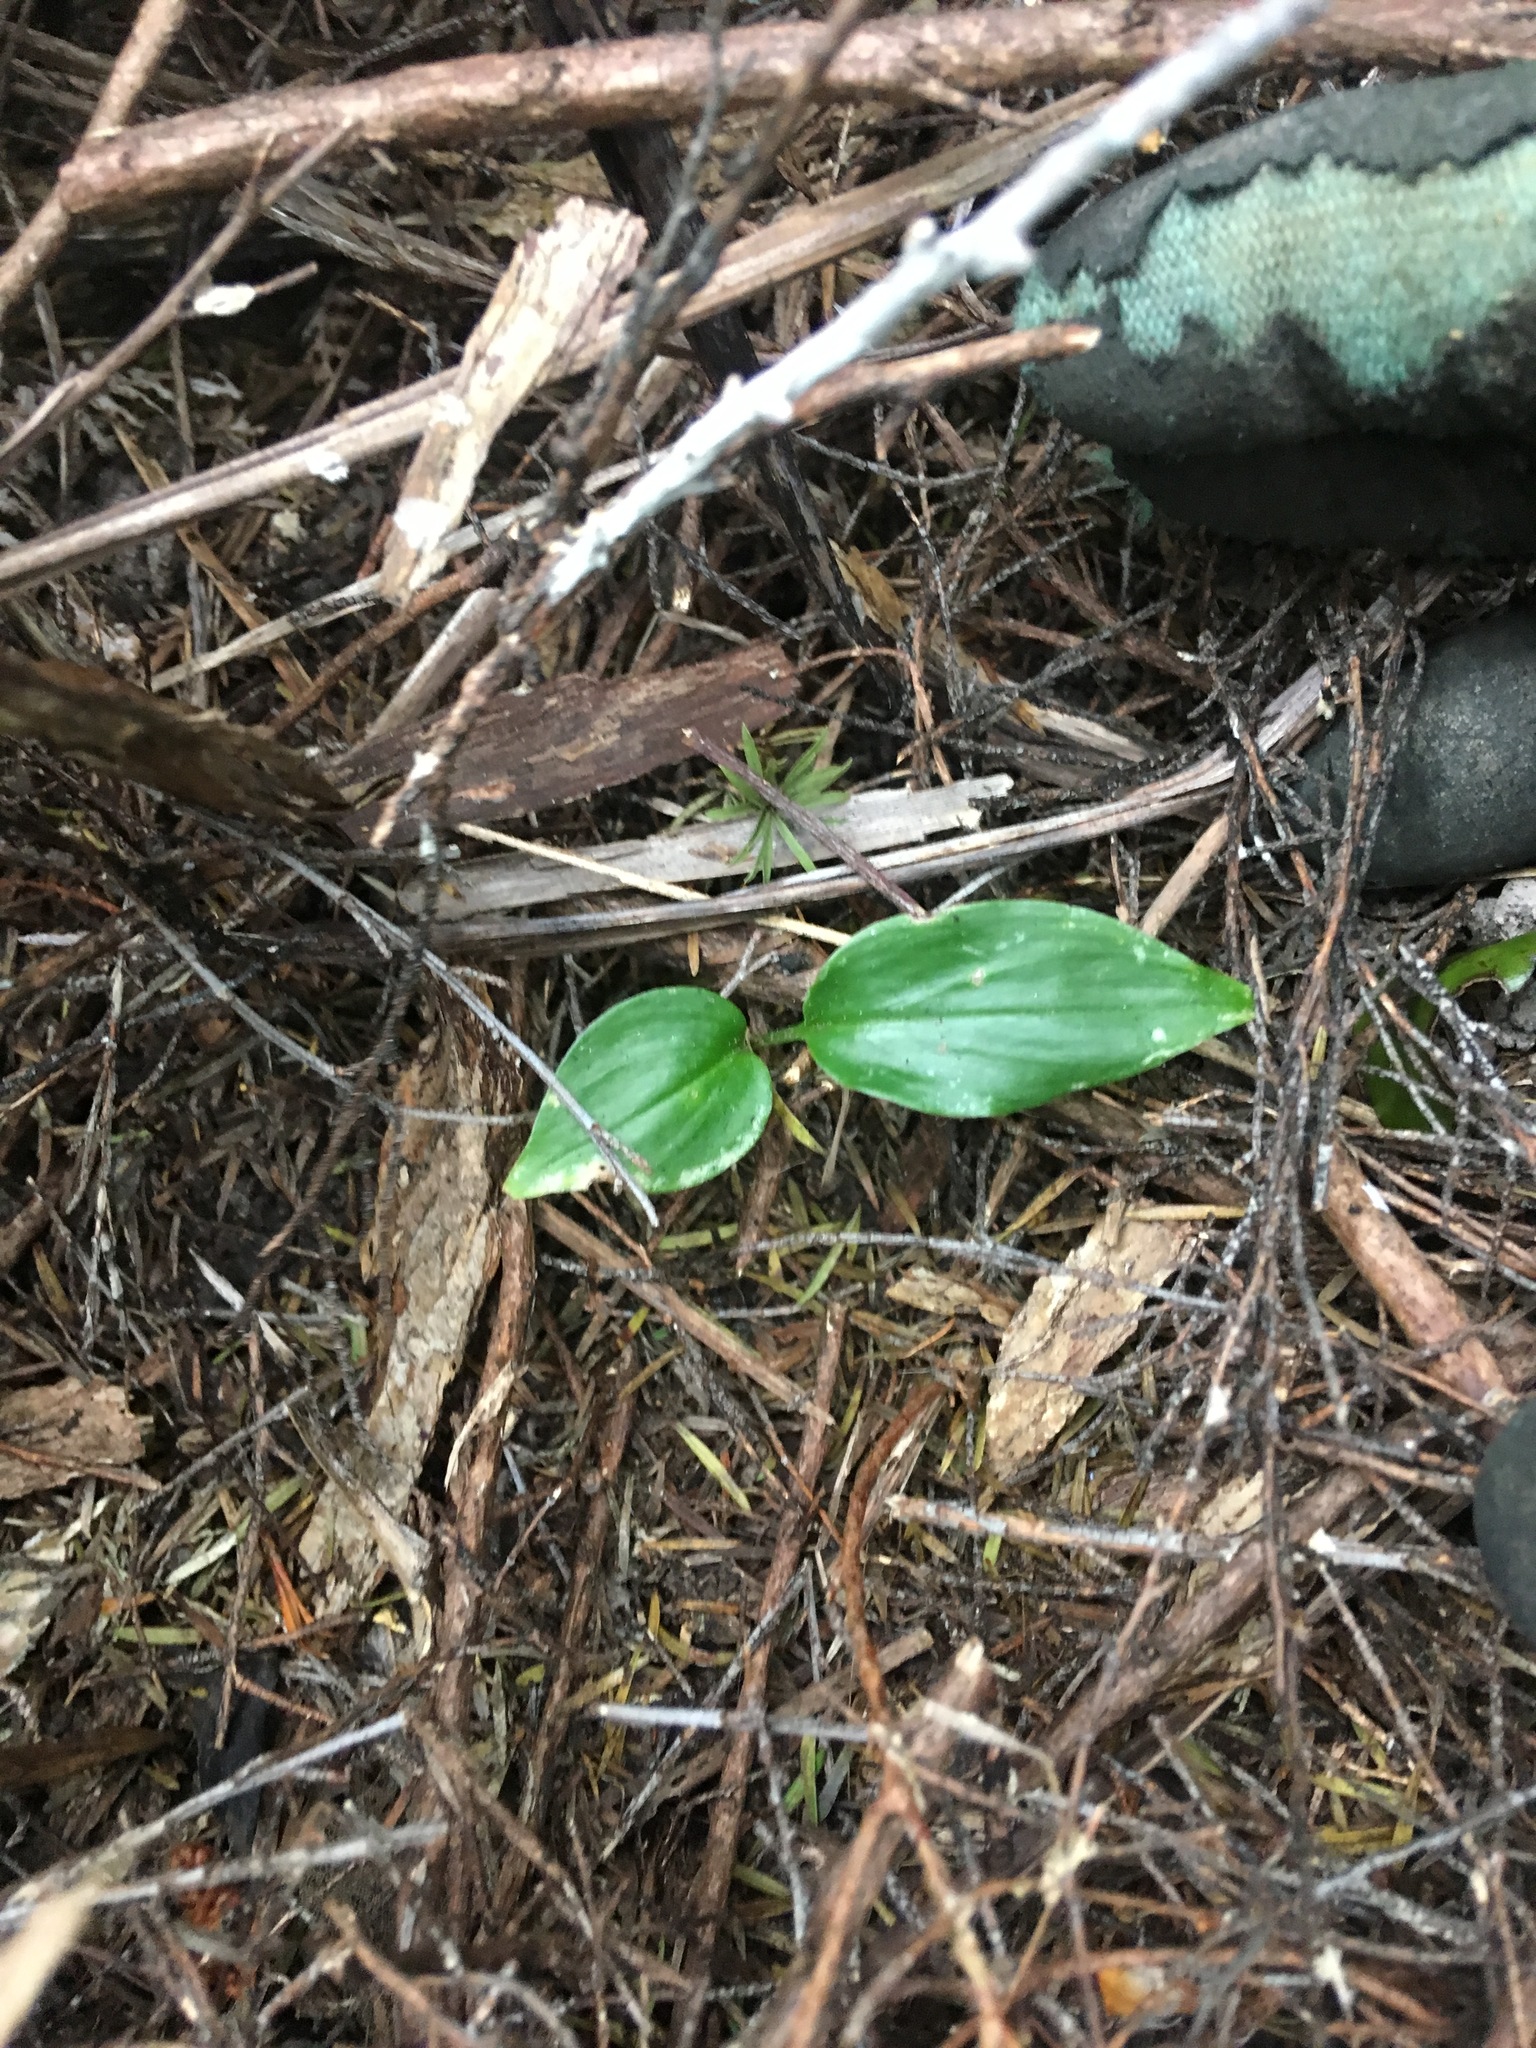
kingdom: Plantae
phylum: Tracheophyta
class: Liliopsida
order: Zingiberales
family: Zingiberaceae
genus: Hedychium
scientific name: Hedychium gardnerianum
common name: Himalayan ginger
